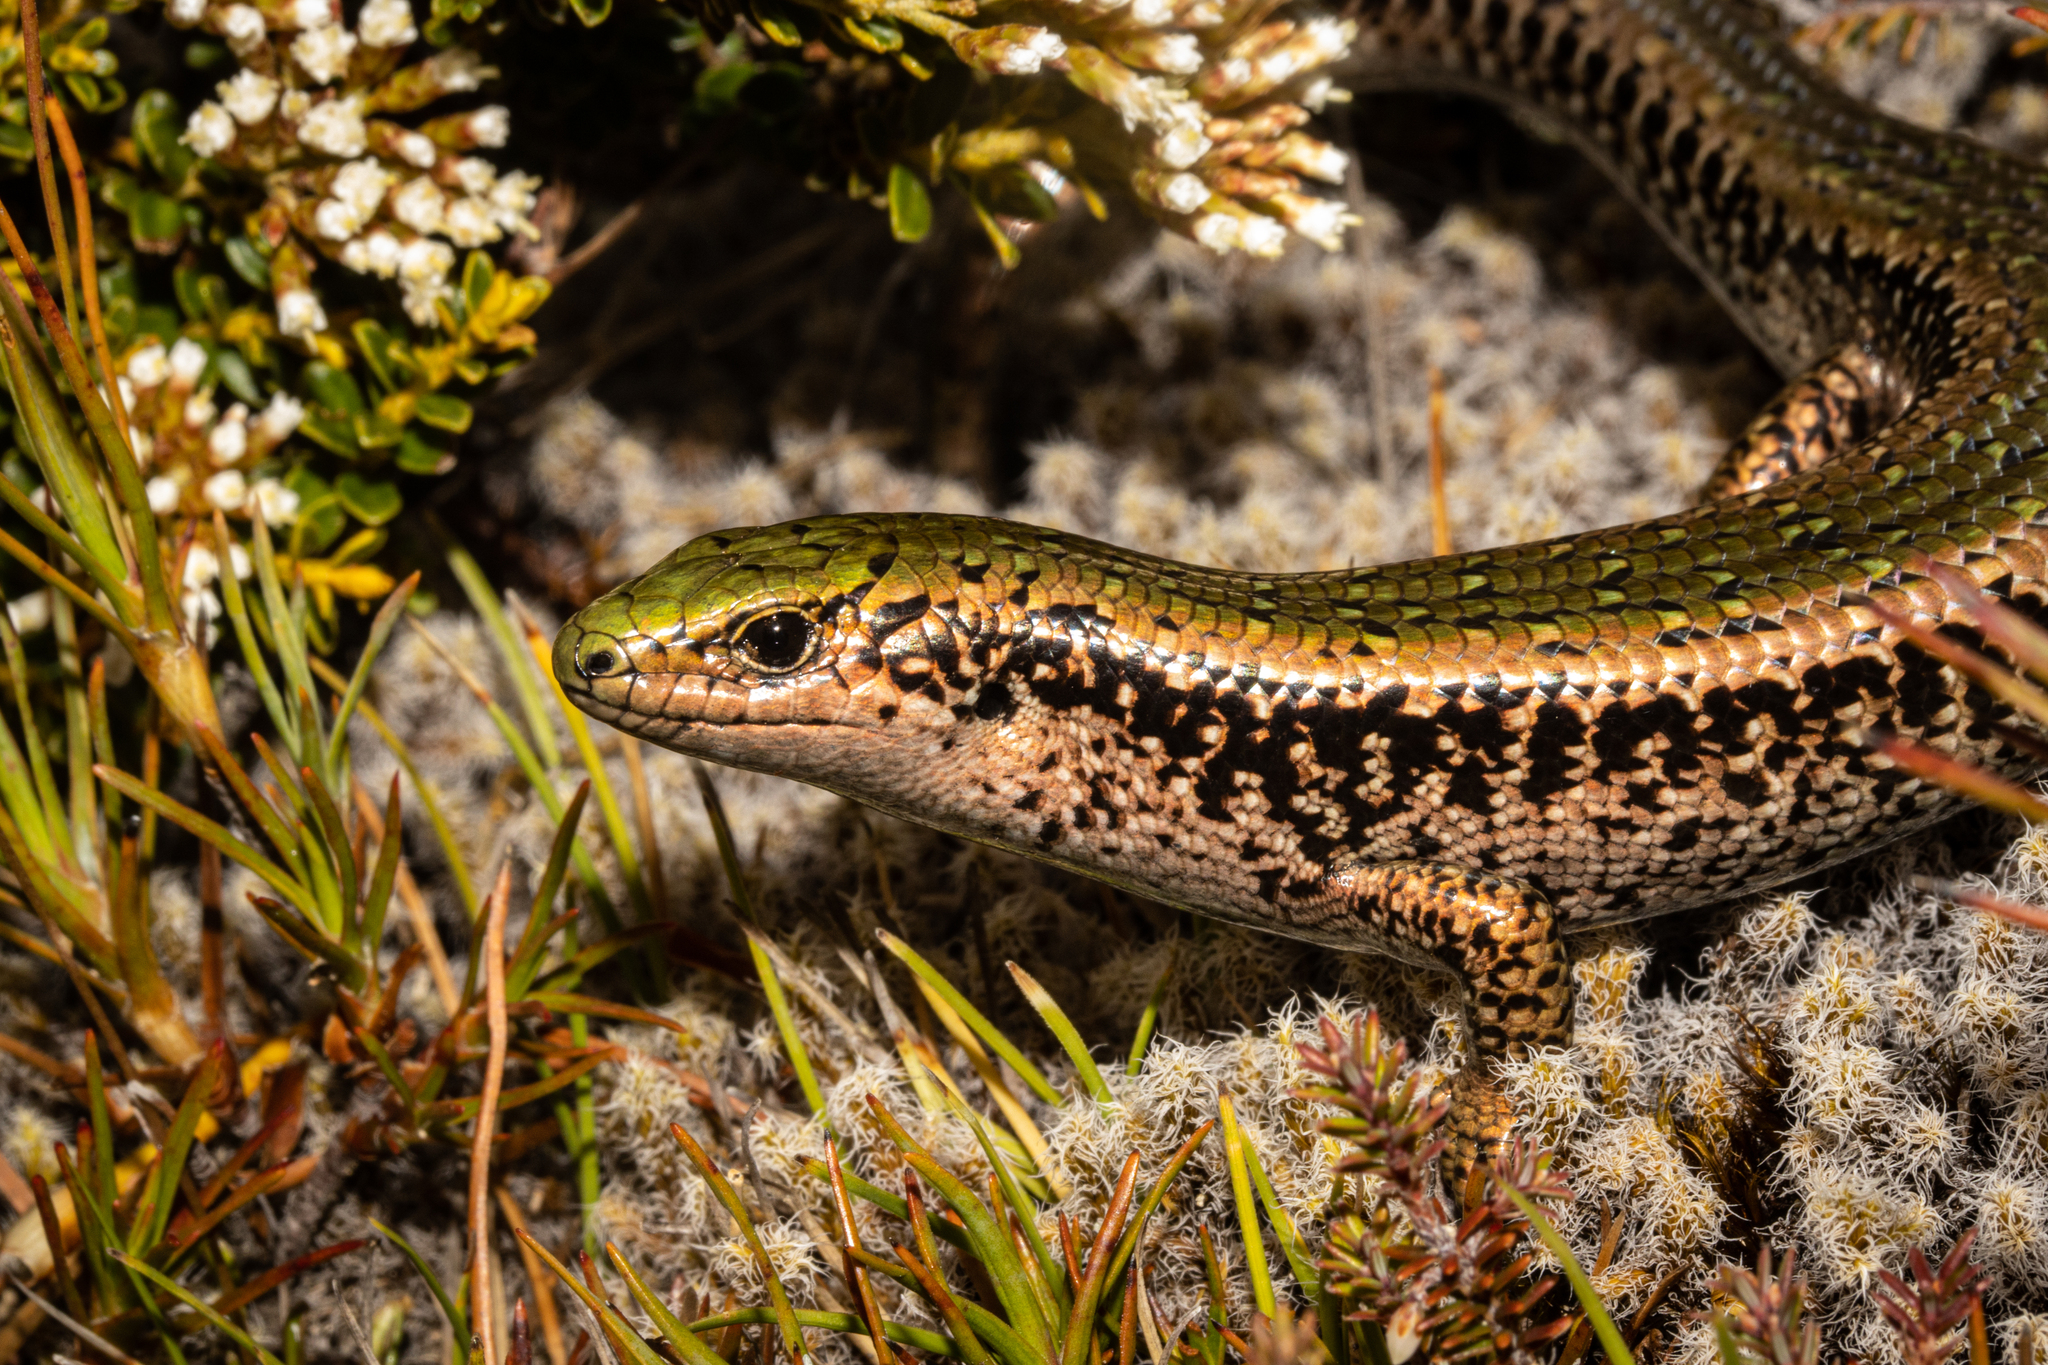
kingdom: Animalia
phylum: Chordata
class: Squamata
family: Scincidae
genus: Oligosoma
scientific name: Oligosoma chloronoton
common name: Green skink
